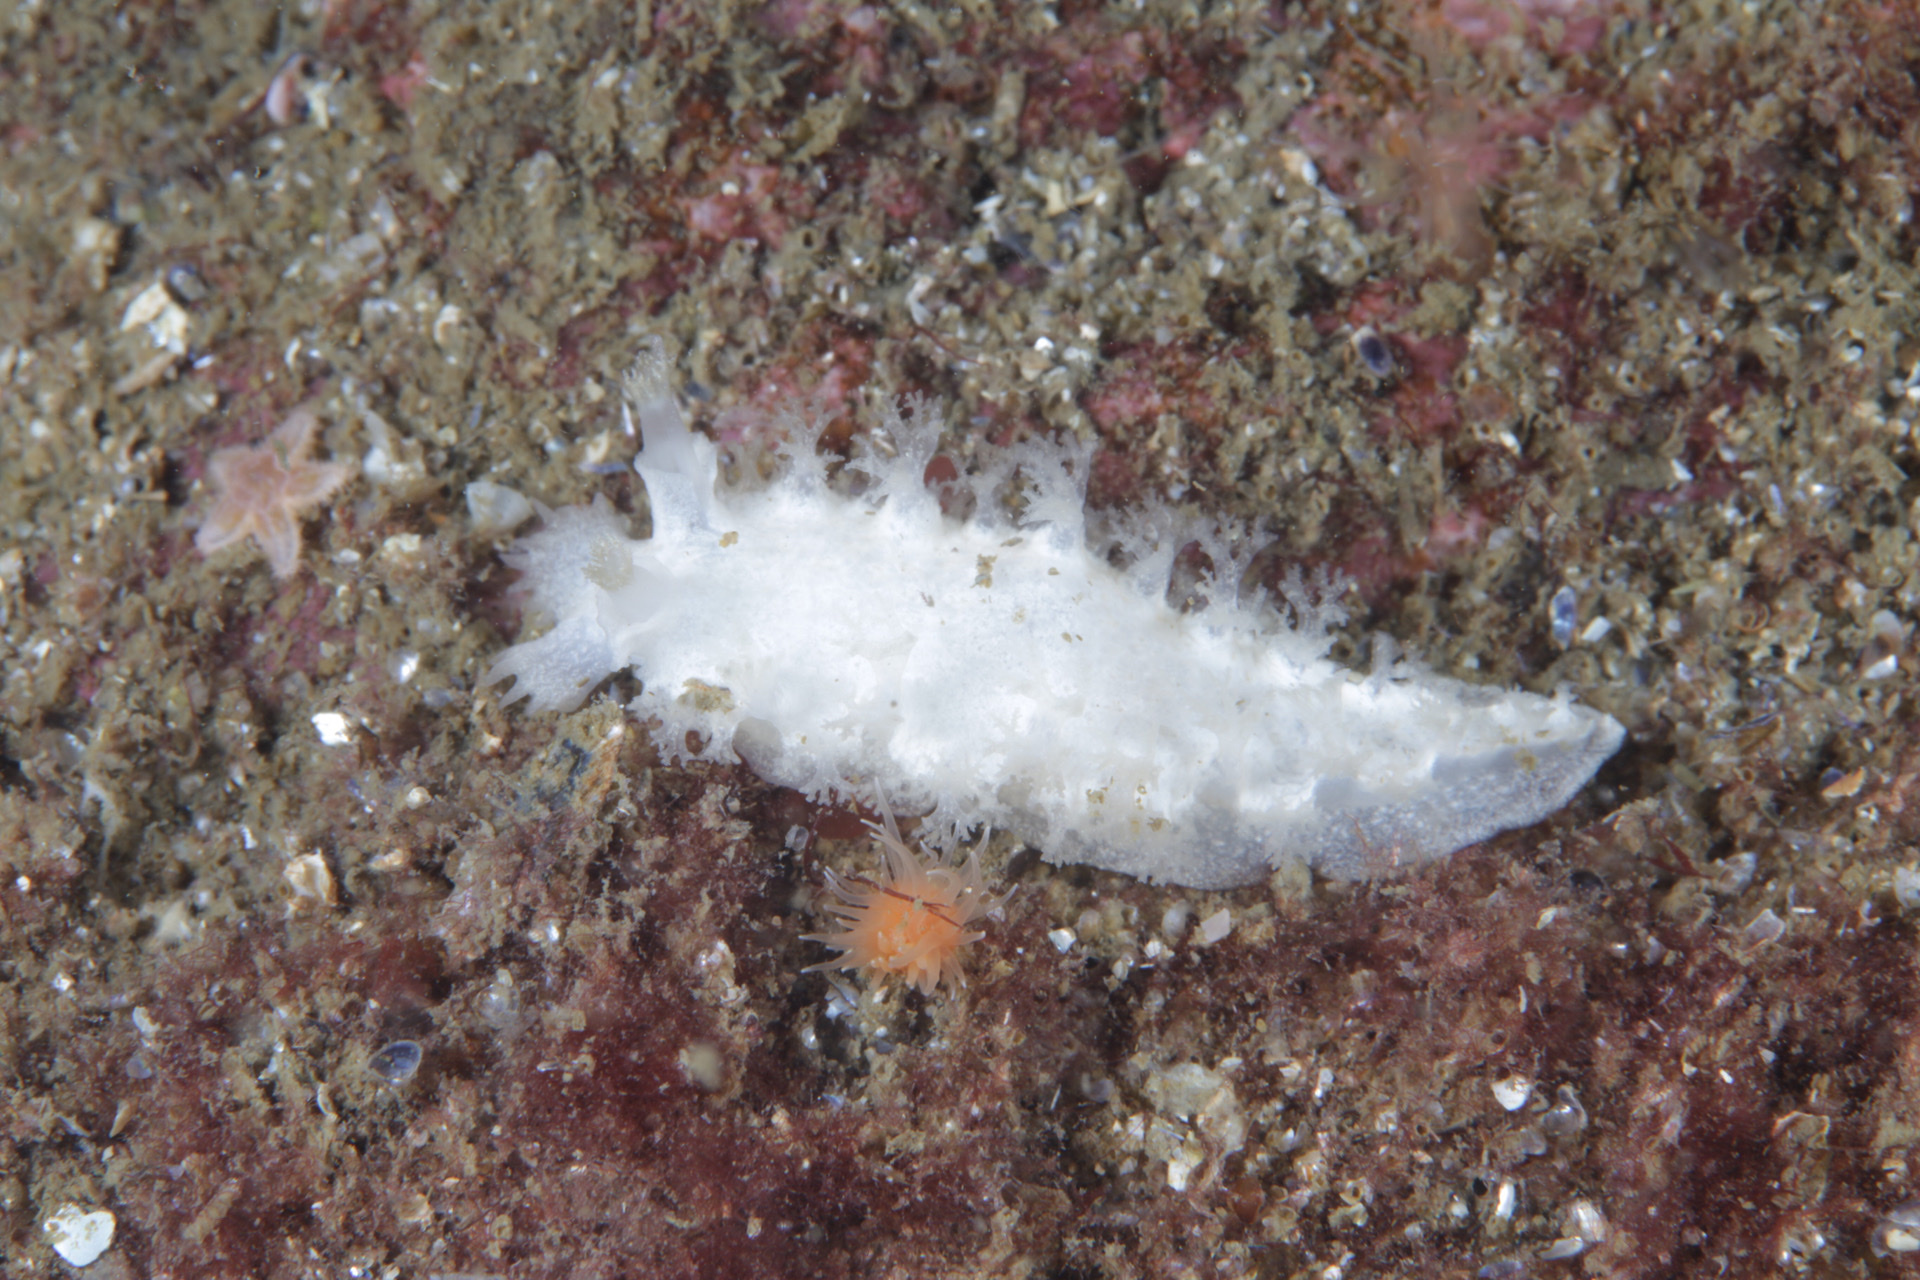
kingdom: Animalia
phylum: Mollusca
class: Gastropoda
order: Nudibranchia
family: Tritoniidae
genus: Tritonia
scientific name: Tritonia hombergii
